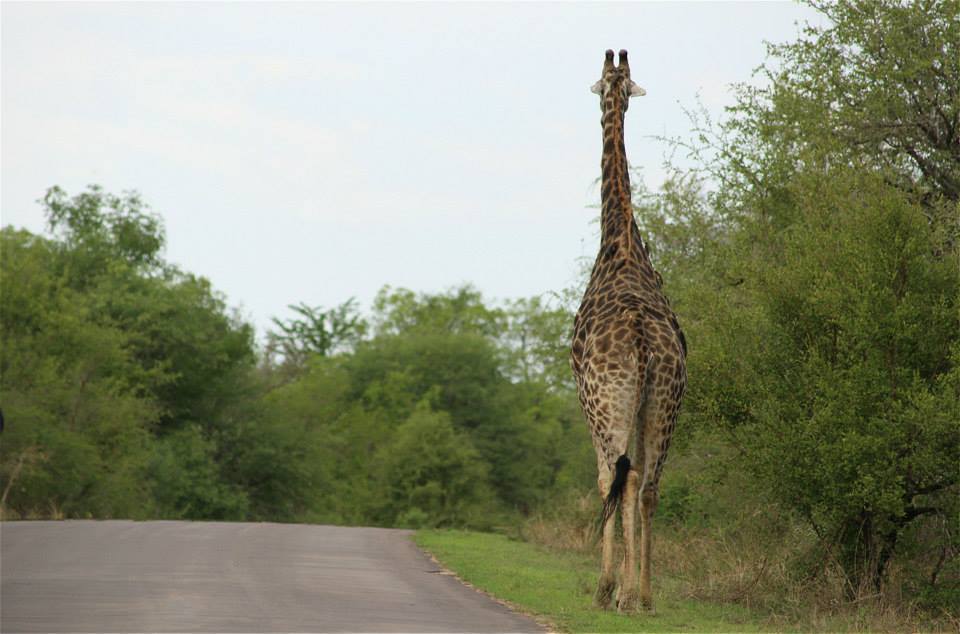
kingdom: Animalia
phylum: Chordata
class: Mammalia
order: Artiodactyla
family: Giraffidae
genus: Giraffa
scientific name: Giraffa giraffa
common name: Southern giraffe
